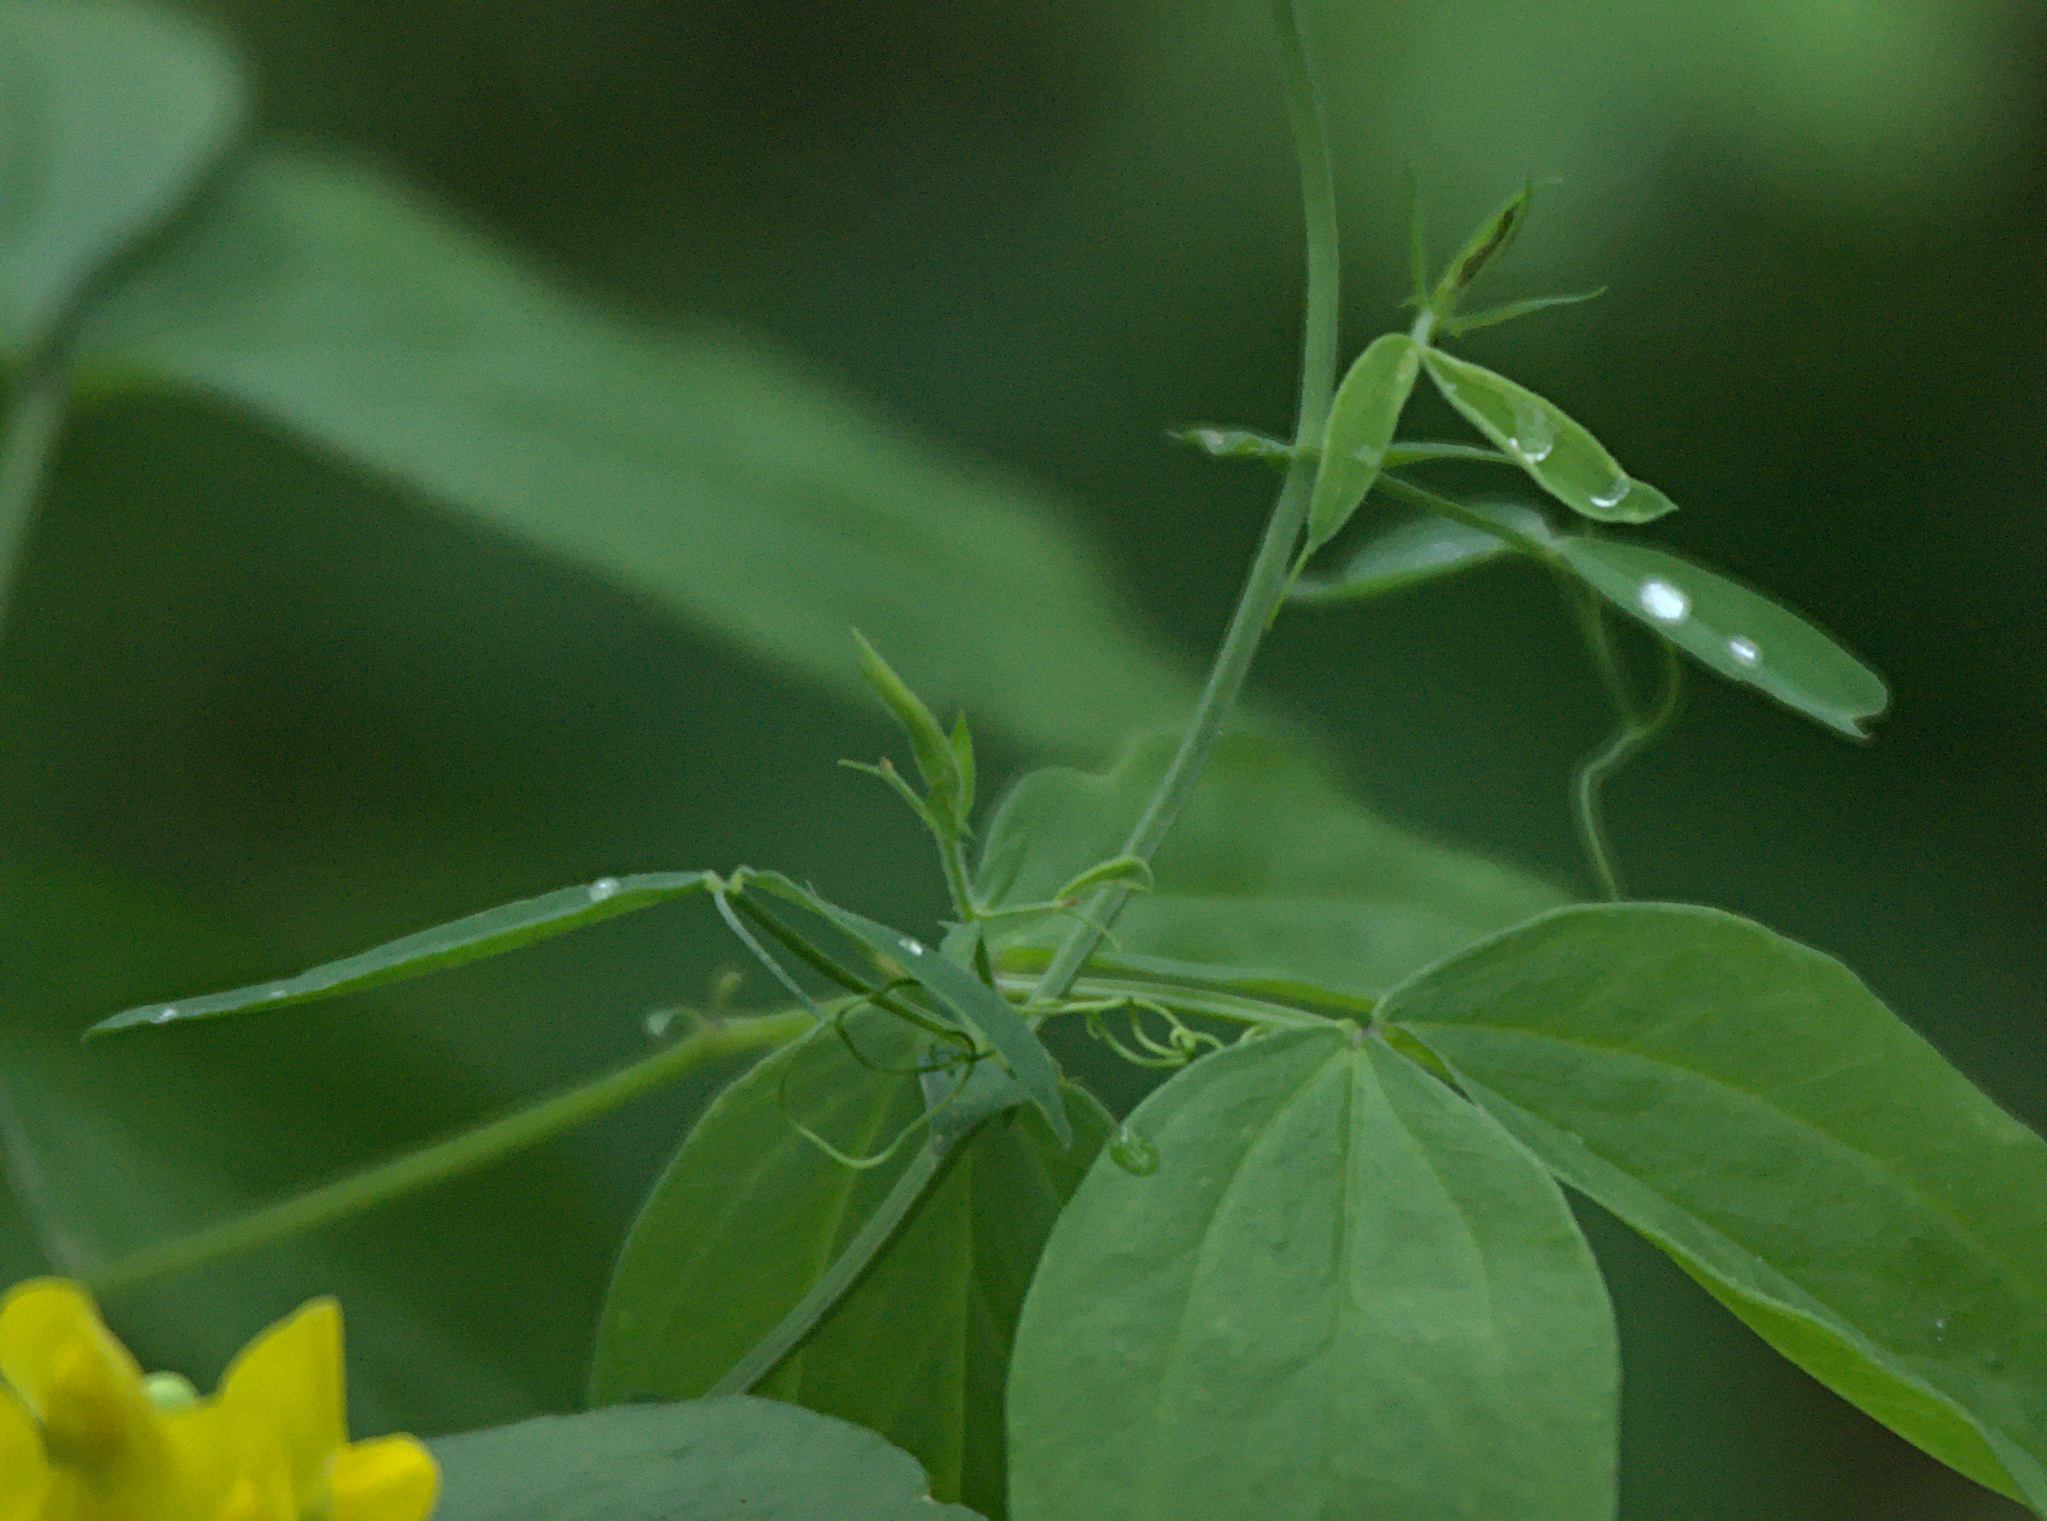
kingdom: Plantae
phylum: Tracheophyta
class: Magnoliopsida
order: Fabales
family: Fabaceae
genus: Lathyrus
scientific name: Lathyrus pratensis
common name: Meadow vetchling
